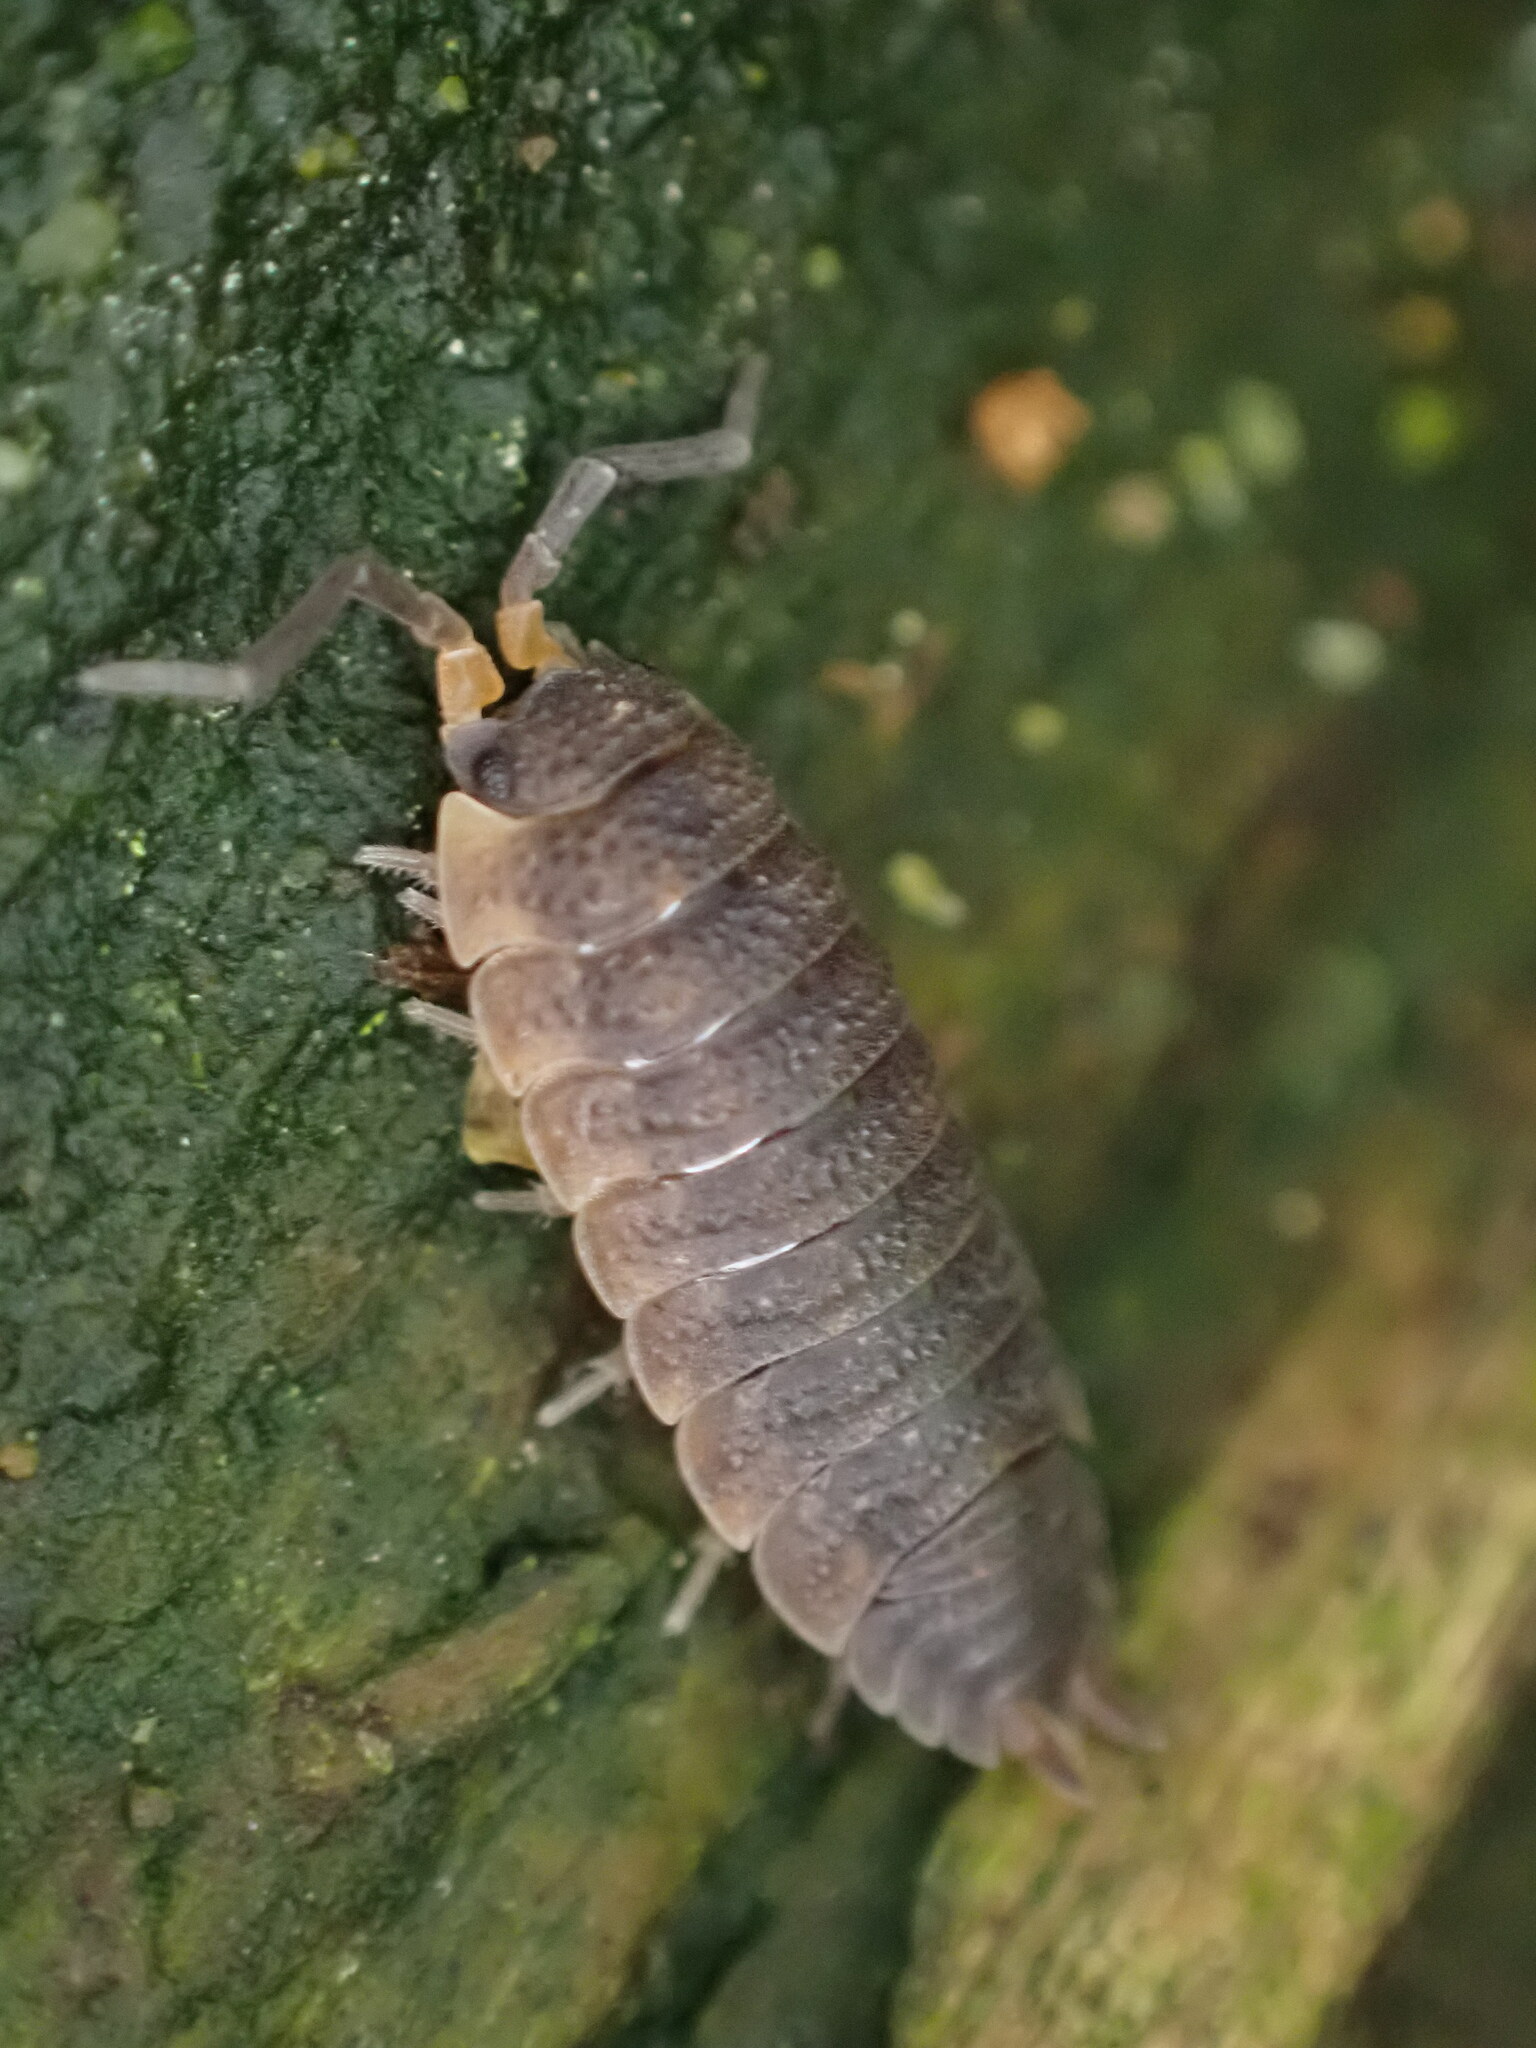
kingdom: Animalia
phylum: Arthropoda
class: Malacostraca
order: Isopoda
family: Porcellionidae
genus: Porcellio
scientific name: Porcellio scaber
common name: Common rough woodlouse
